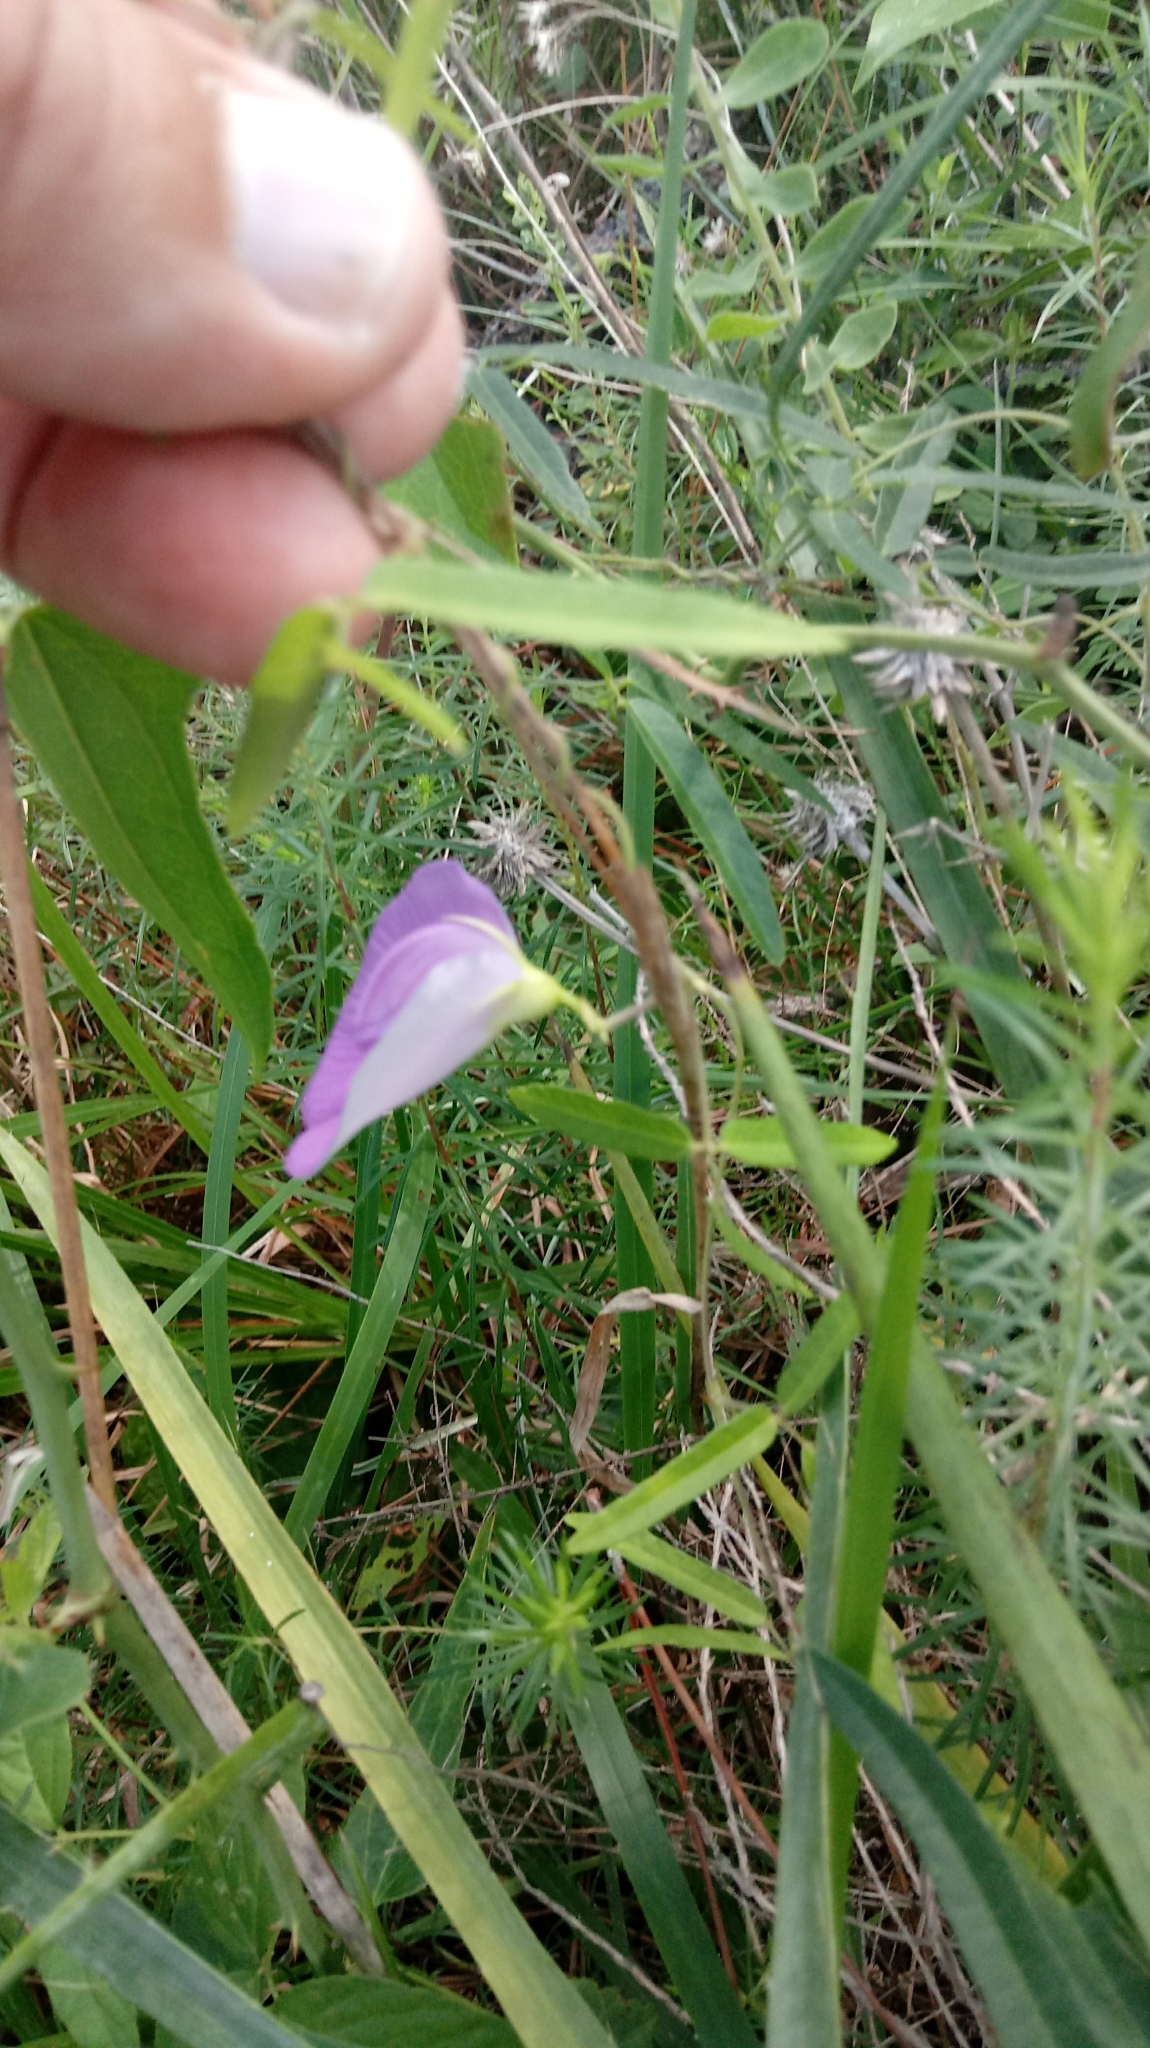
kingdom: Plantae
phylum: Tracheophyta
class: Magnoliopsida
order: Fabales
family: Fabaceae
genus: Centrosema
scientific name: Centrosema virginianum
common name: Butterfly-pea
